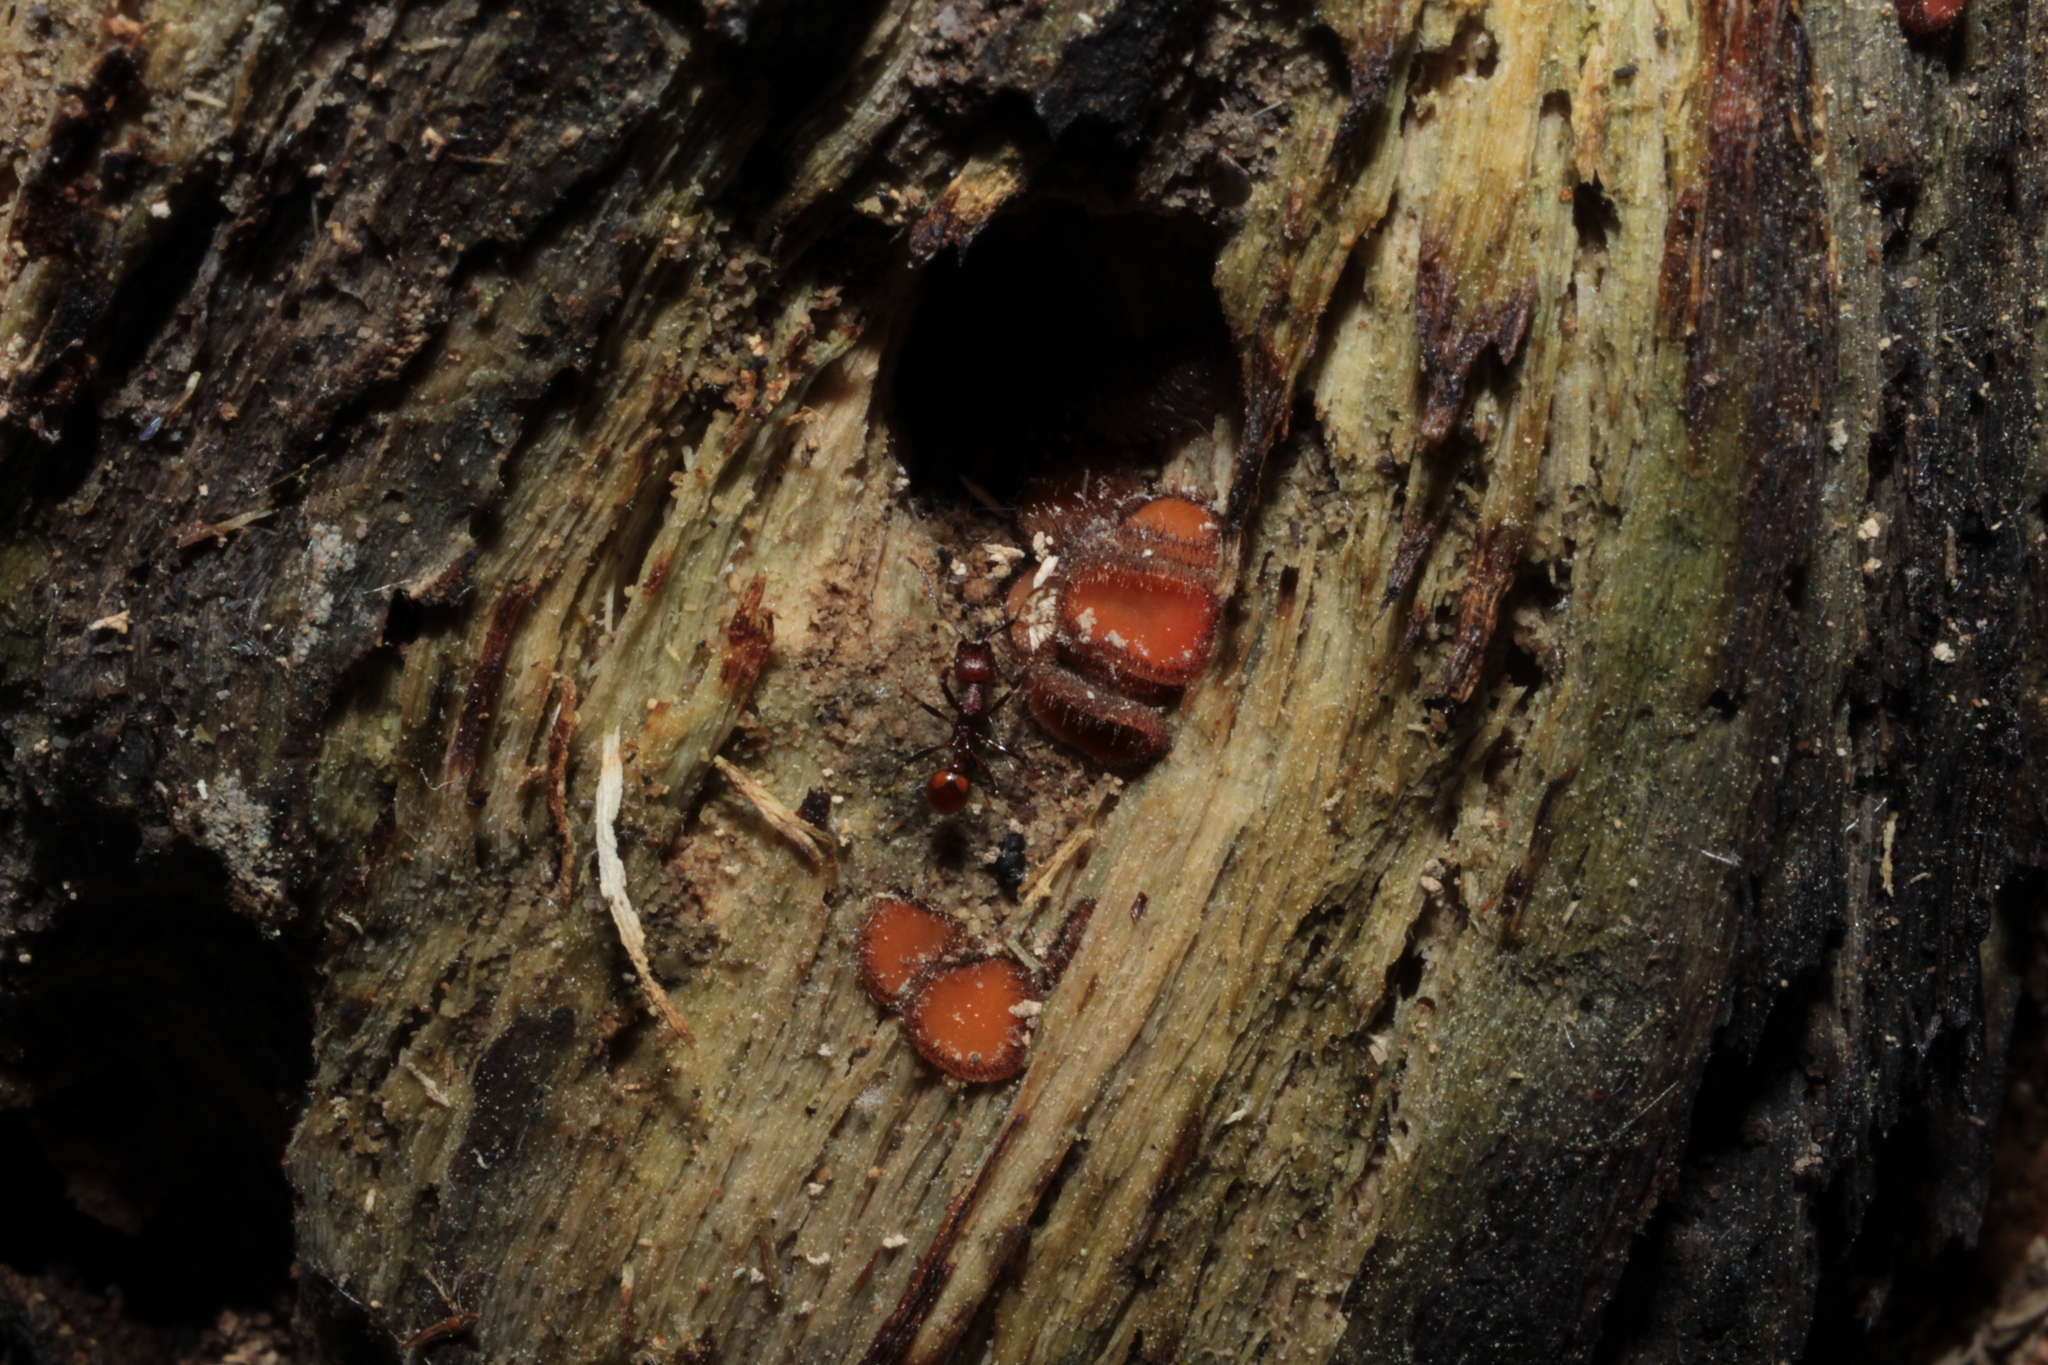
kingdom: Animalia
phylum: Arthropoda
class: Insecta
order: Hymenoptera
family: Formicidae
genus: Aphaenogaster
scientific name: Aphaenogaster tennesseensis
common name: Tennessee thread-waisted ant
